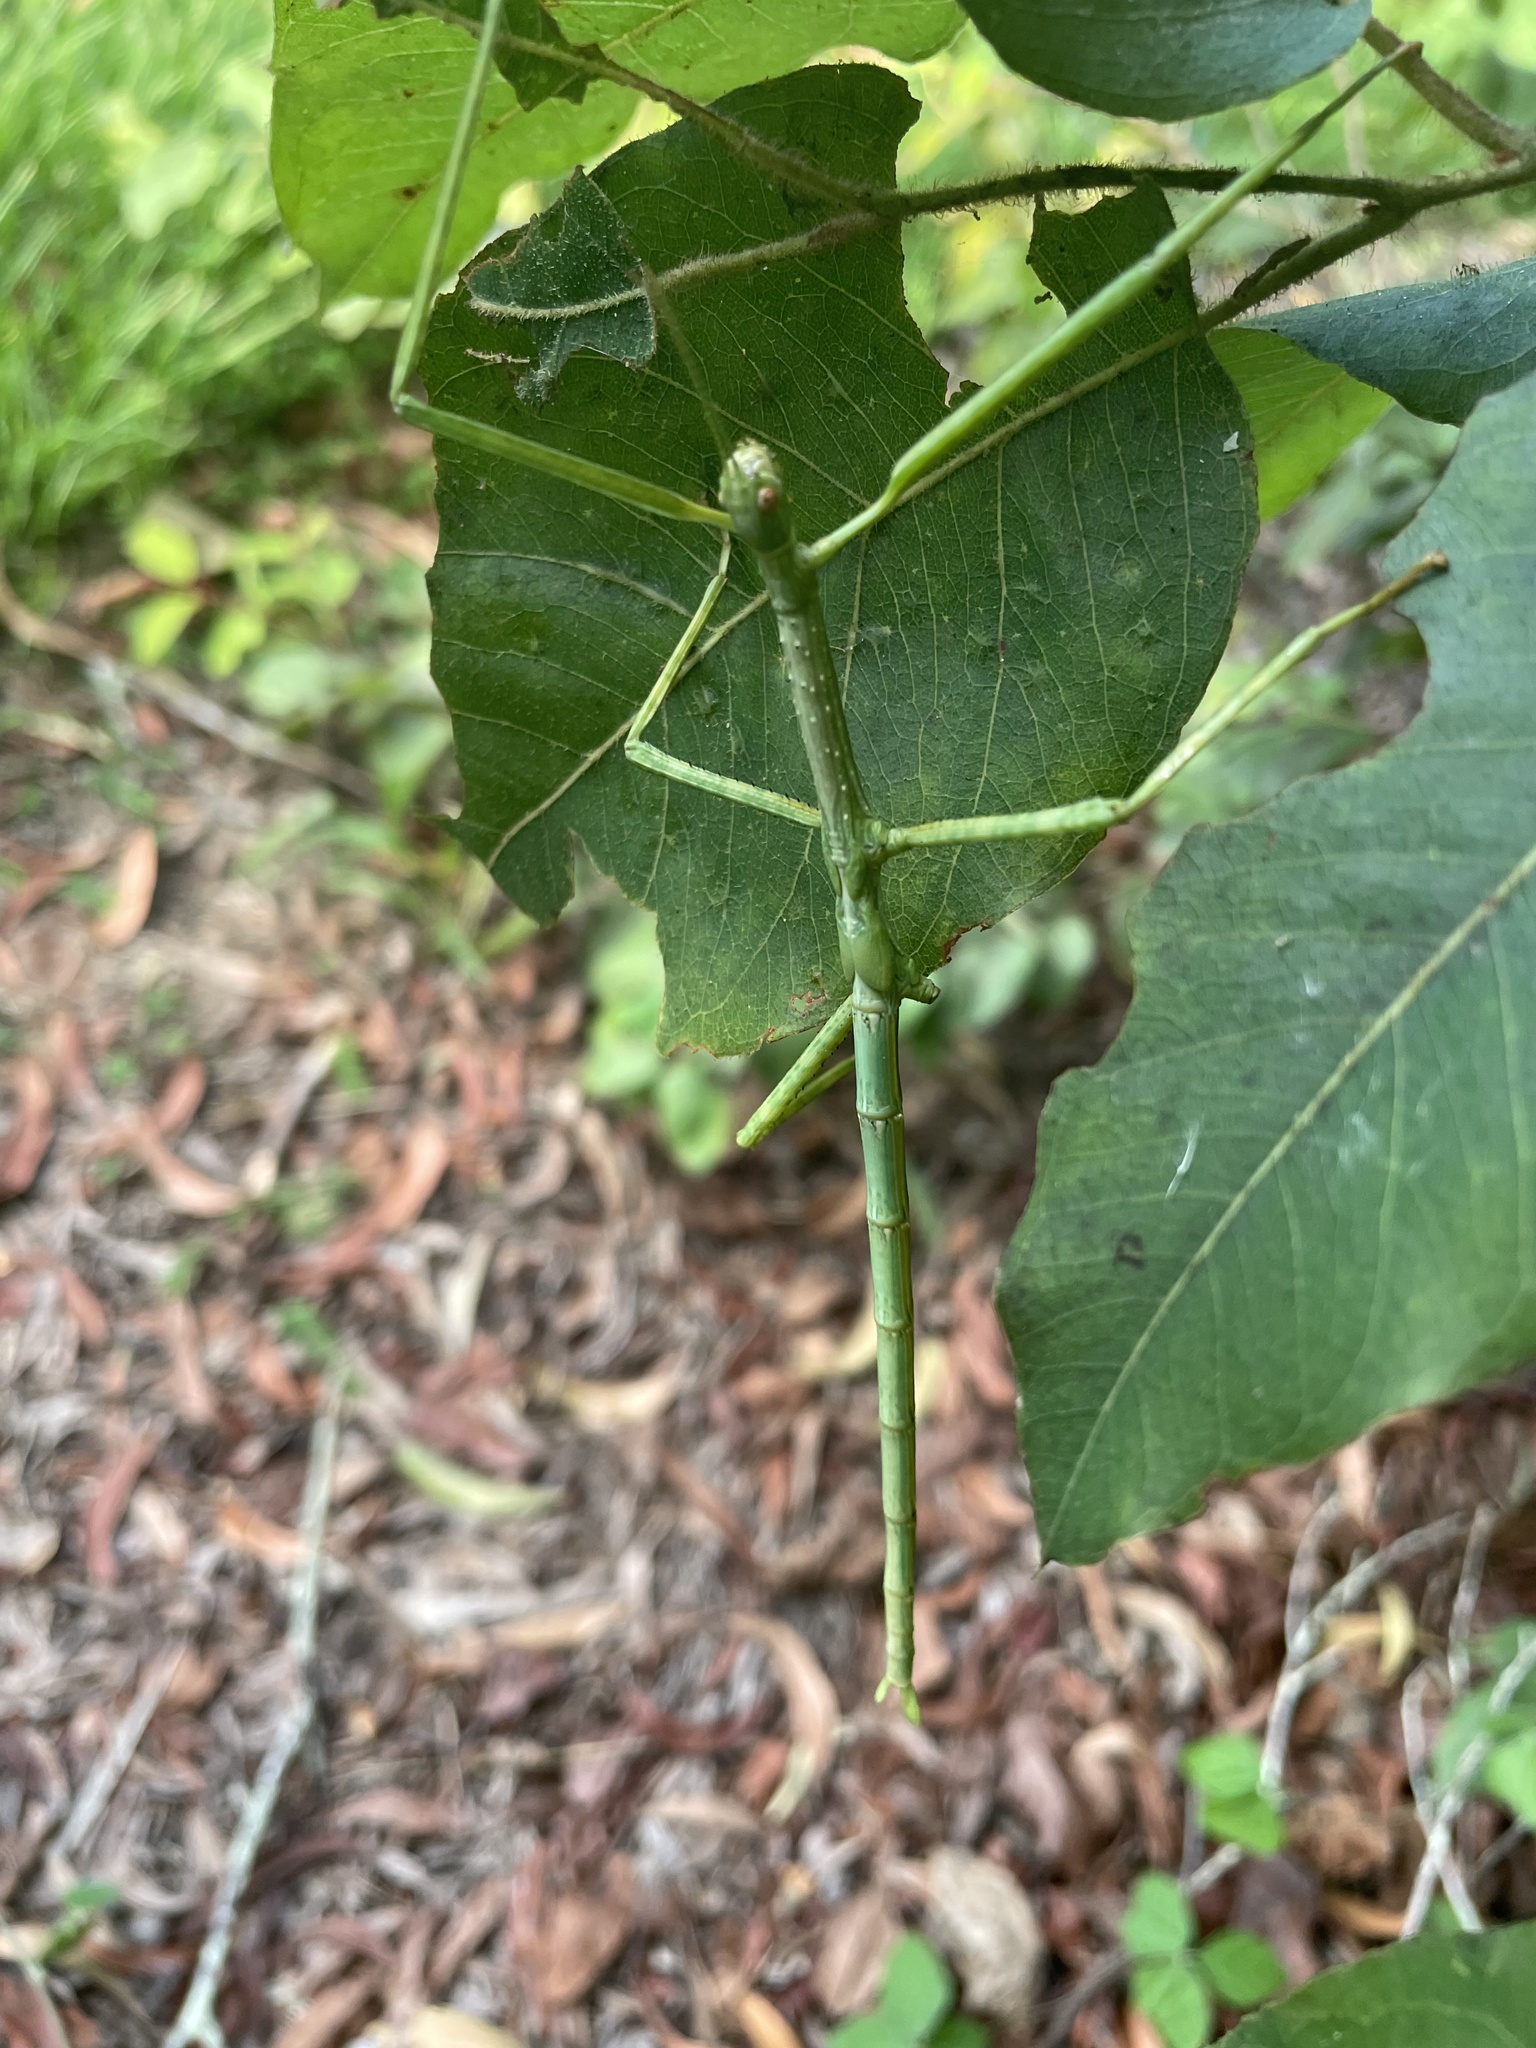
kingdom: Animalia
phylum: Arthropoda
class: Insecta
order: Phasmida
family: Phasmatidae
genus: Anchiale
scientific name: Anchiale austrotessulata
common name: Tessellated stick-insect
